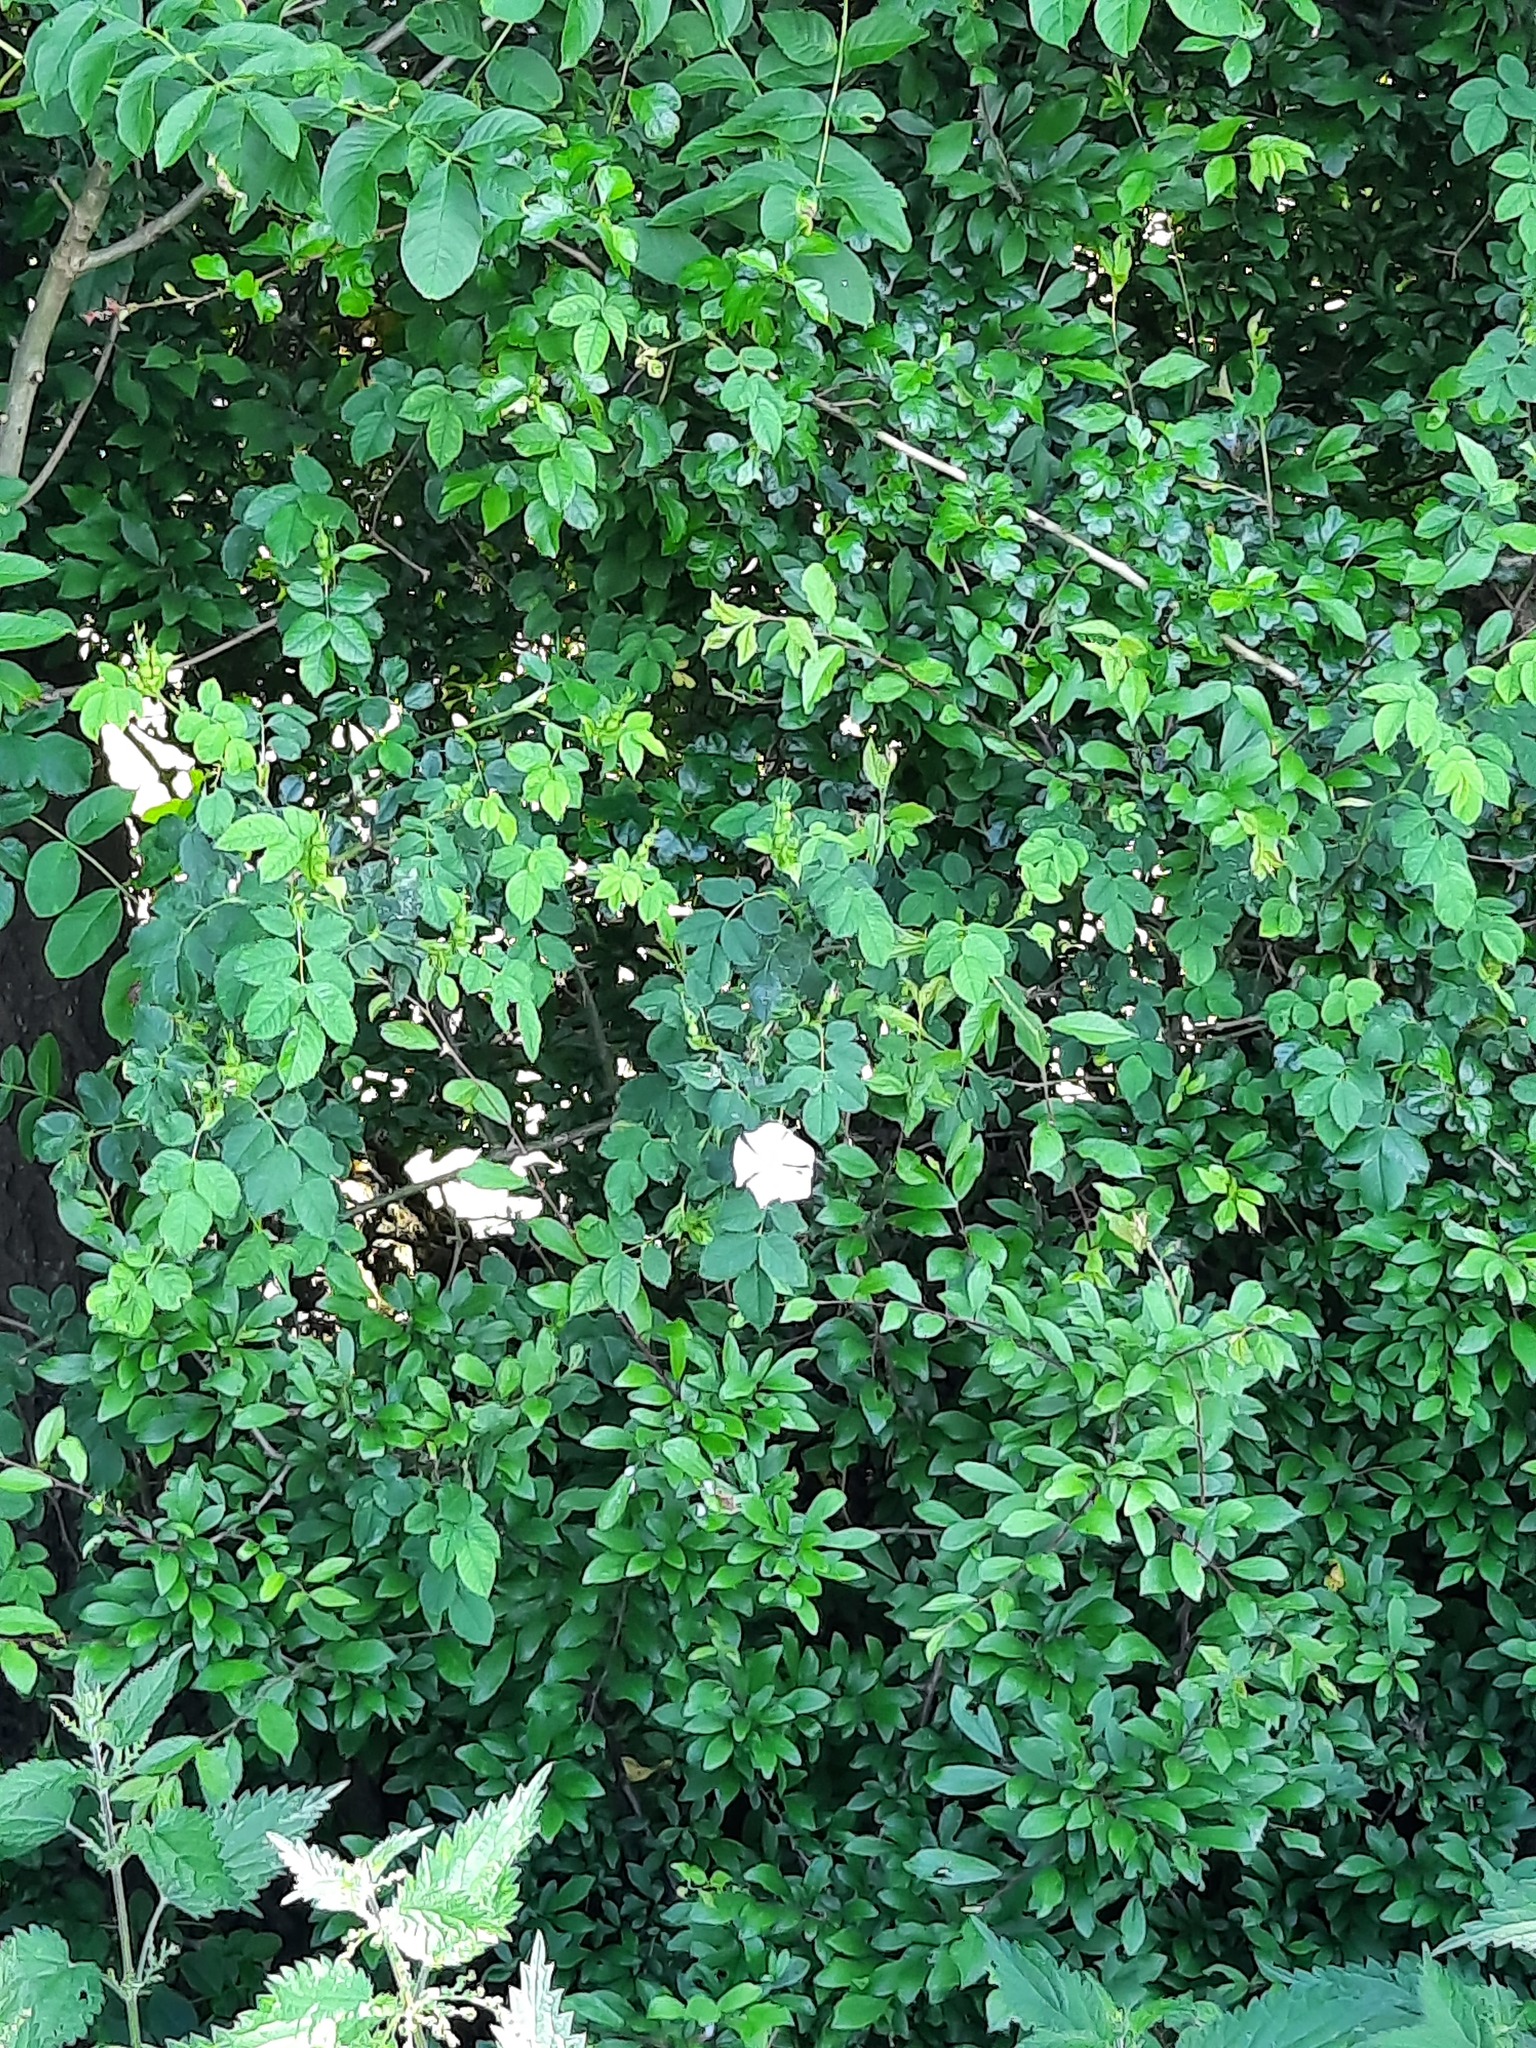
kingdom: Plantae
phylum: Tracheophyta
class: Magnoliopsida
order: Rosales
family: Rosaceae
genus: Rosa
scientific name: Rosa canina
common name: Dog rose
